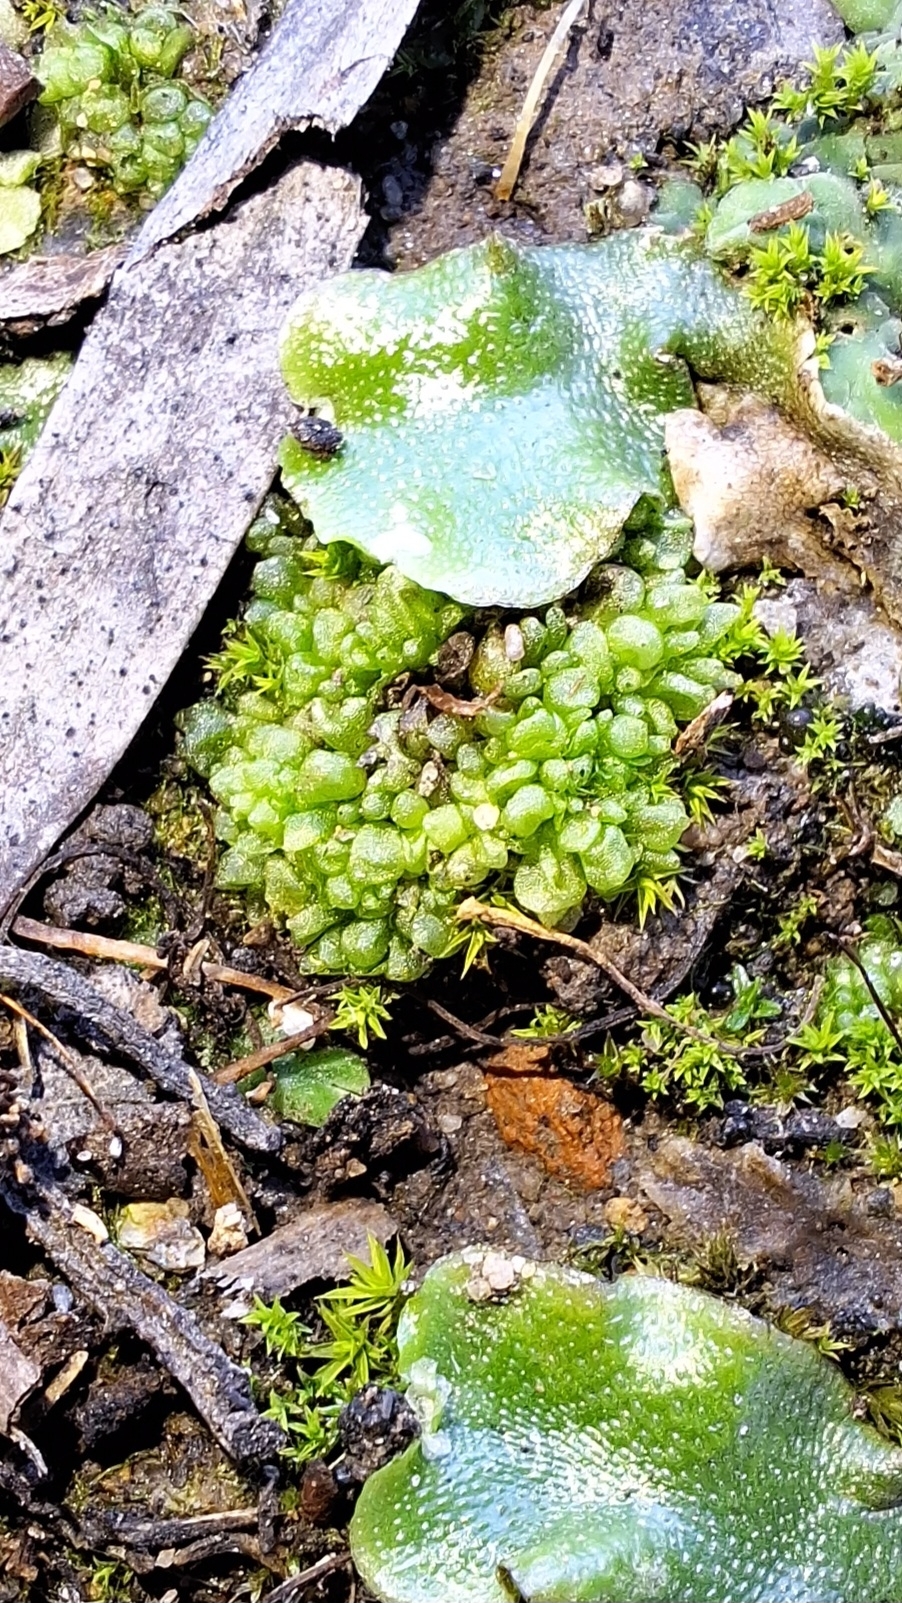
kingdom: Plantae
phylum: Marchantiophyta
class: Marchantiopsida
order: Sphaerocarpales
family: Sphaerocarpaceae
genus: Sphaerocarpos
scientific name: Sphaerocarpos texanus
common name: Texas balloonwort
